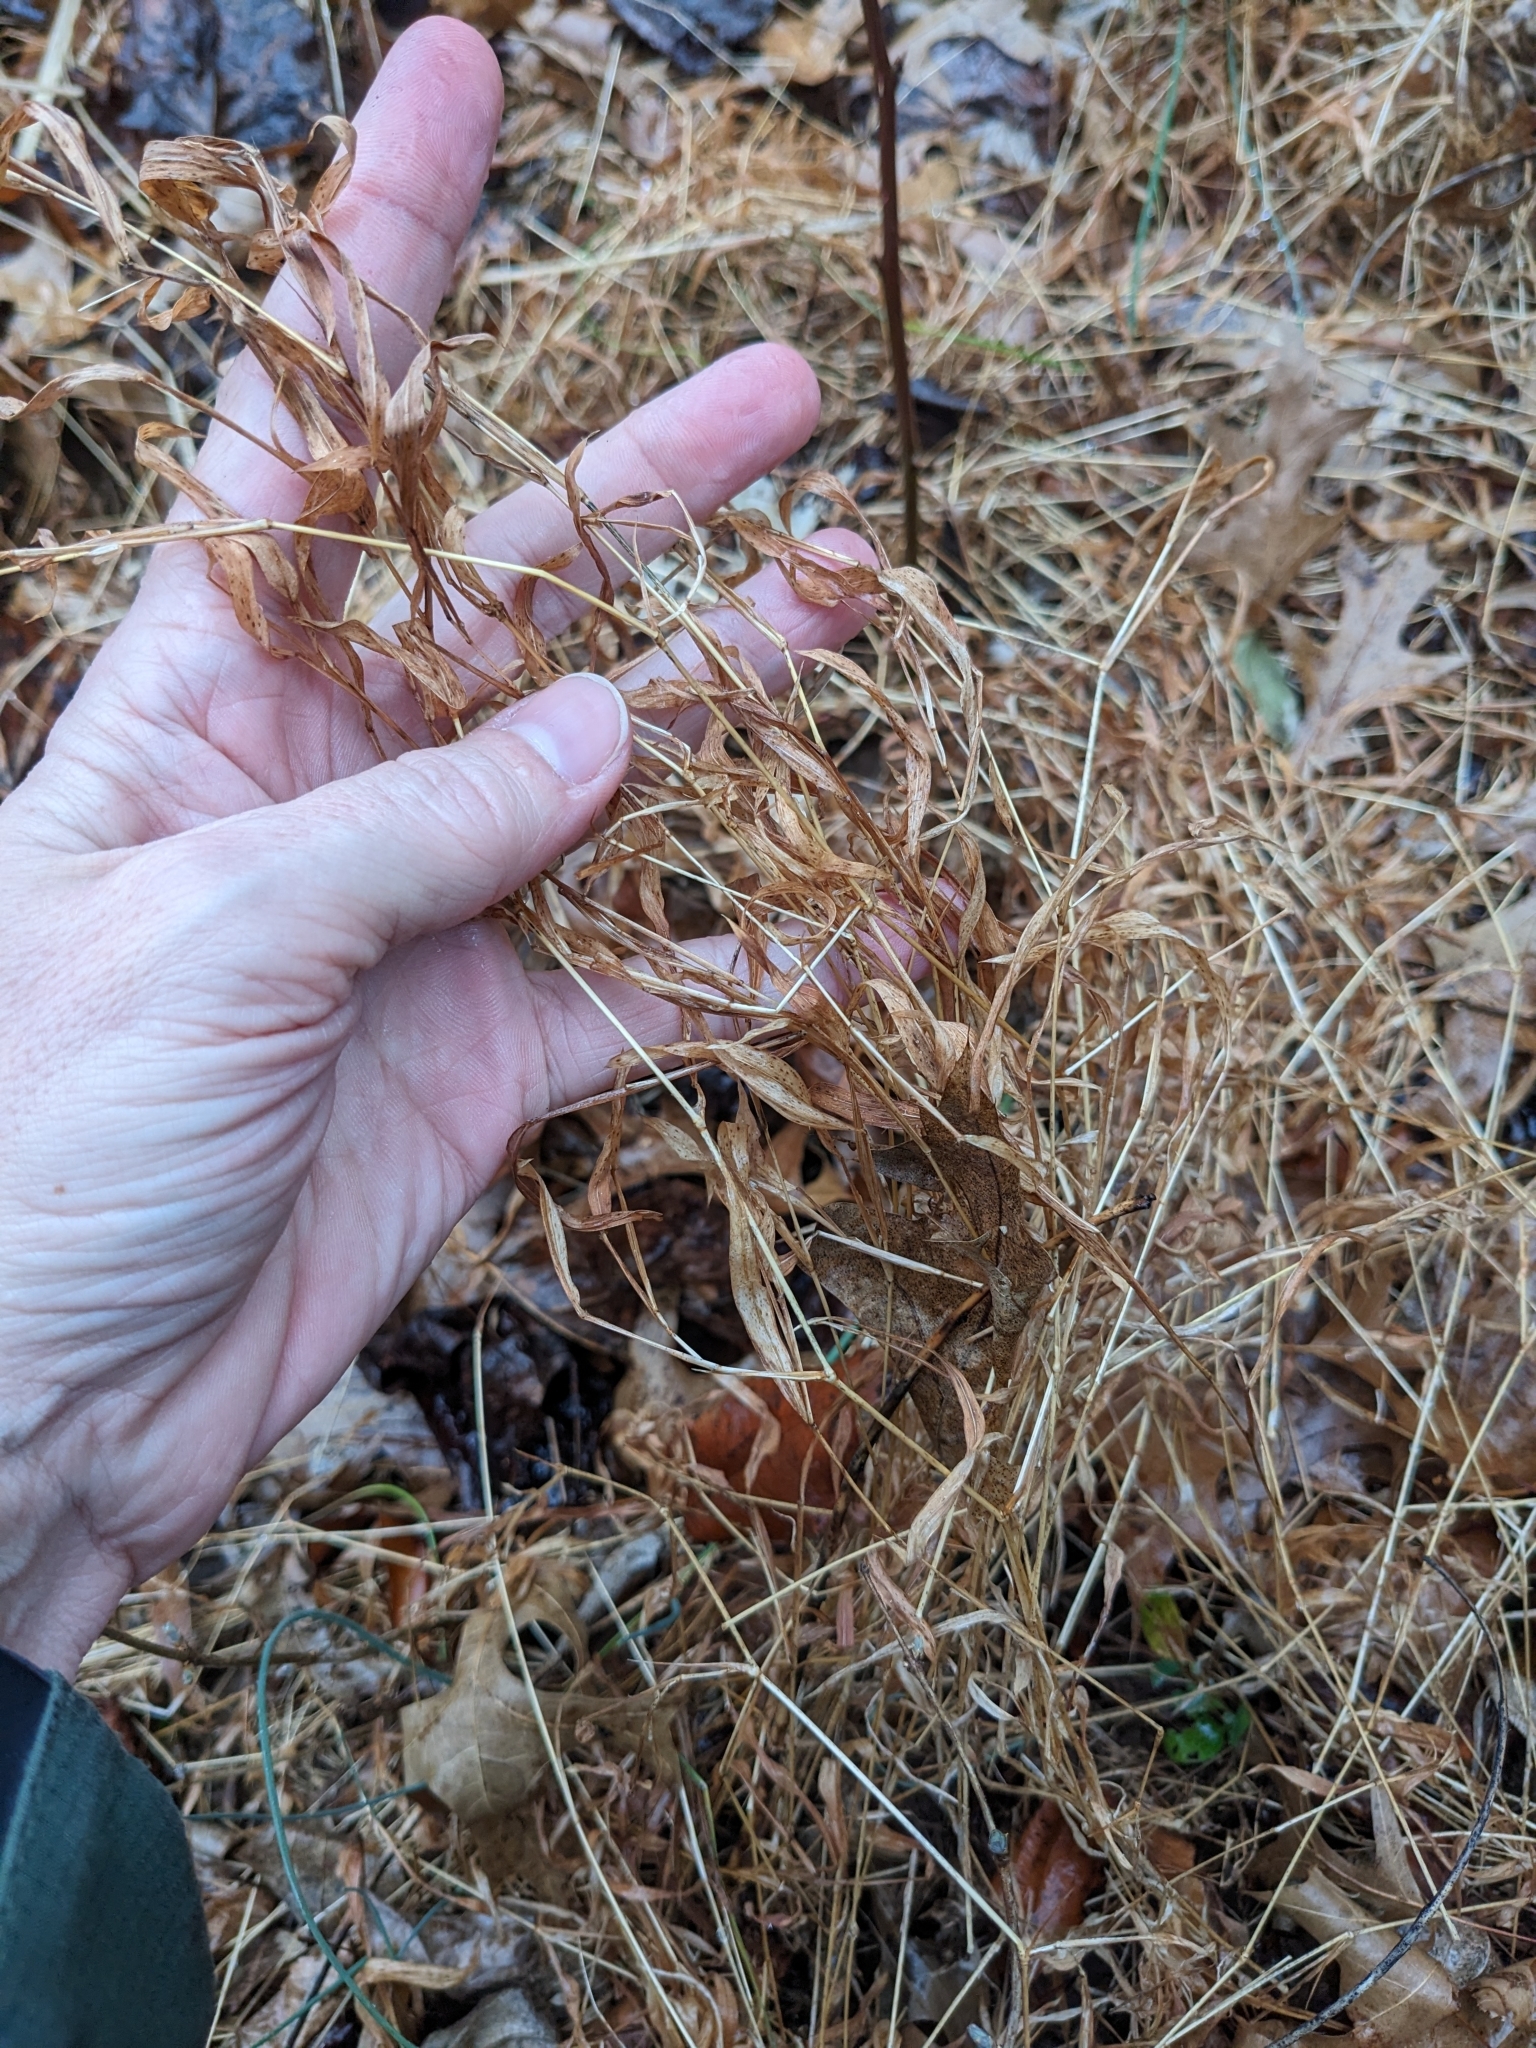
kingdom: Plantae
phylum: Tracheophyta
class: Liliopsida
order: Poales
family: Poaceae
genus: Microstegium
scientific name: Microstegium vimineum
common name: Japanese stiltgrass
